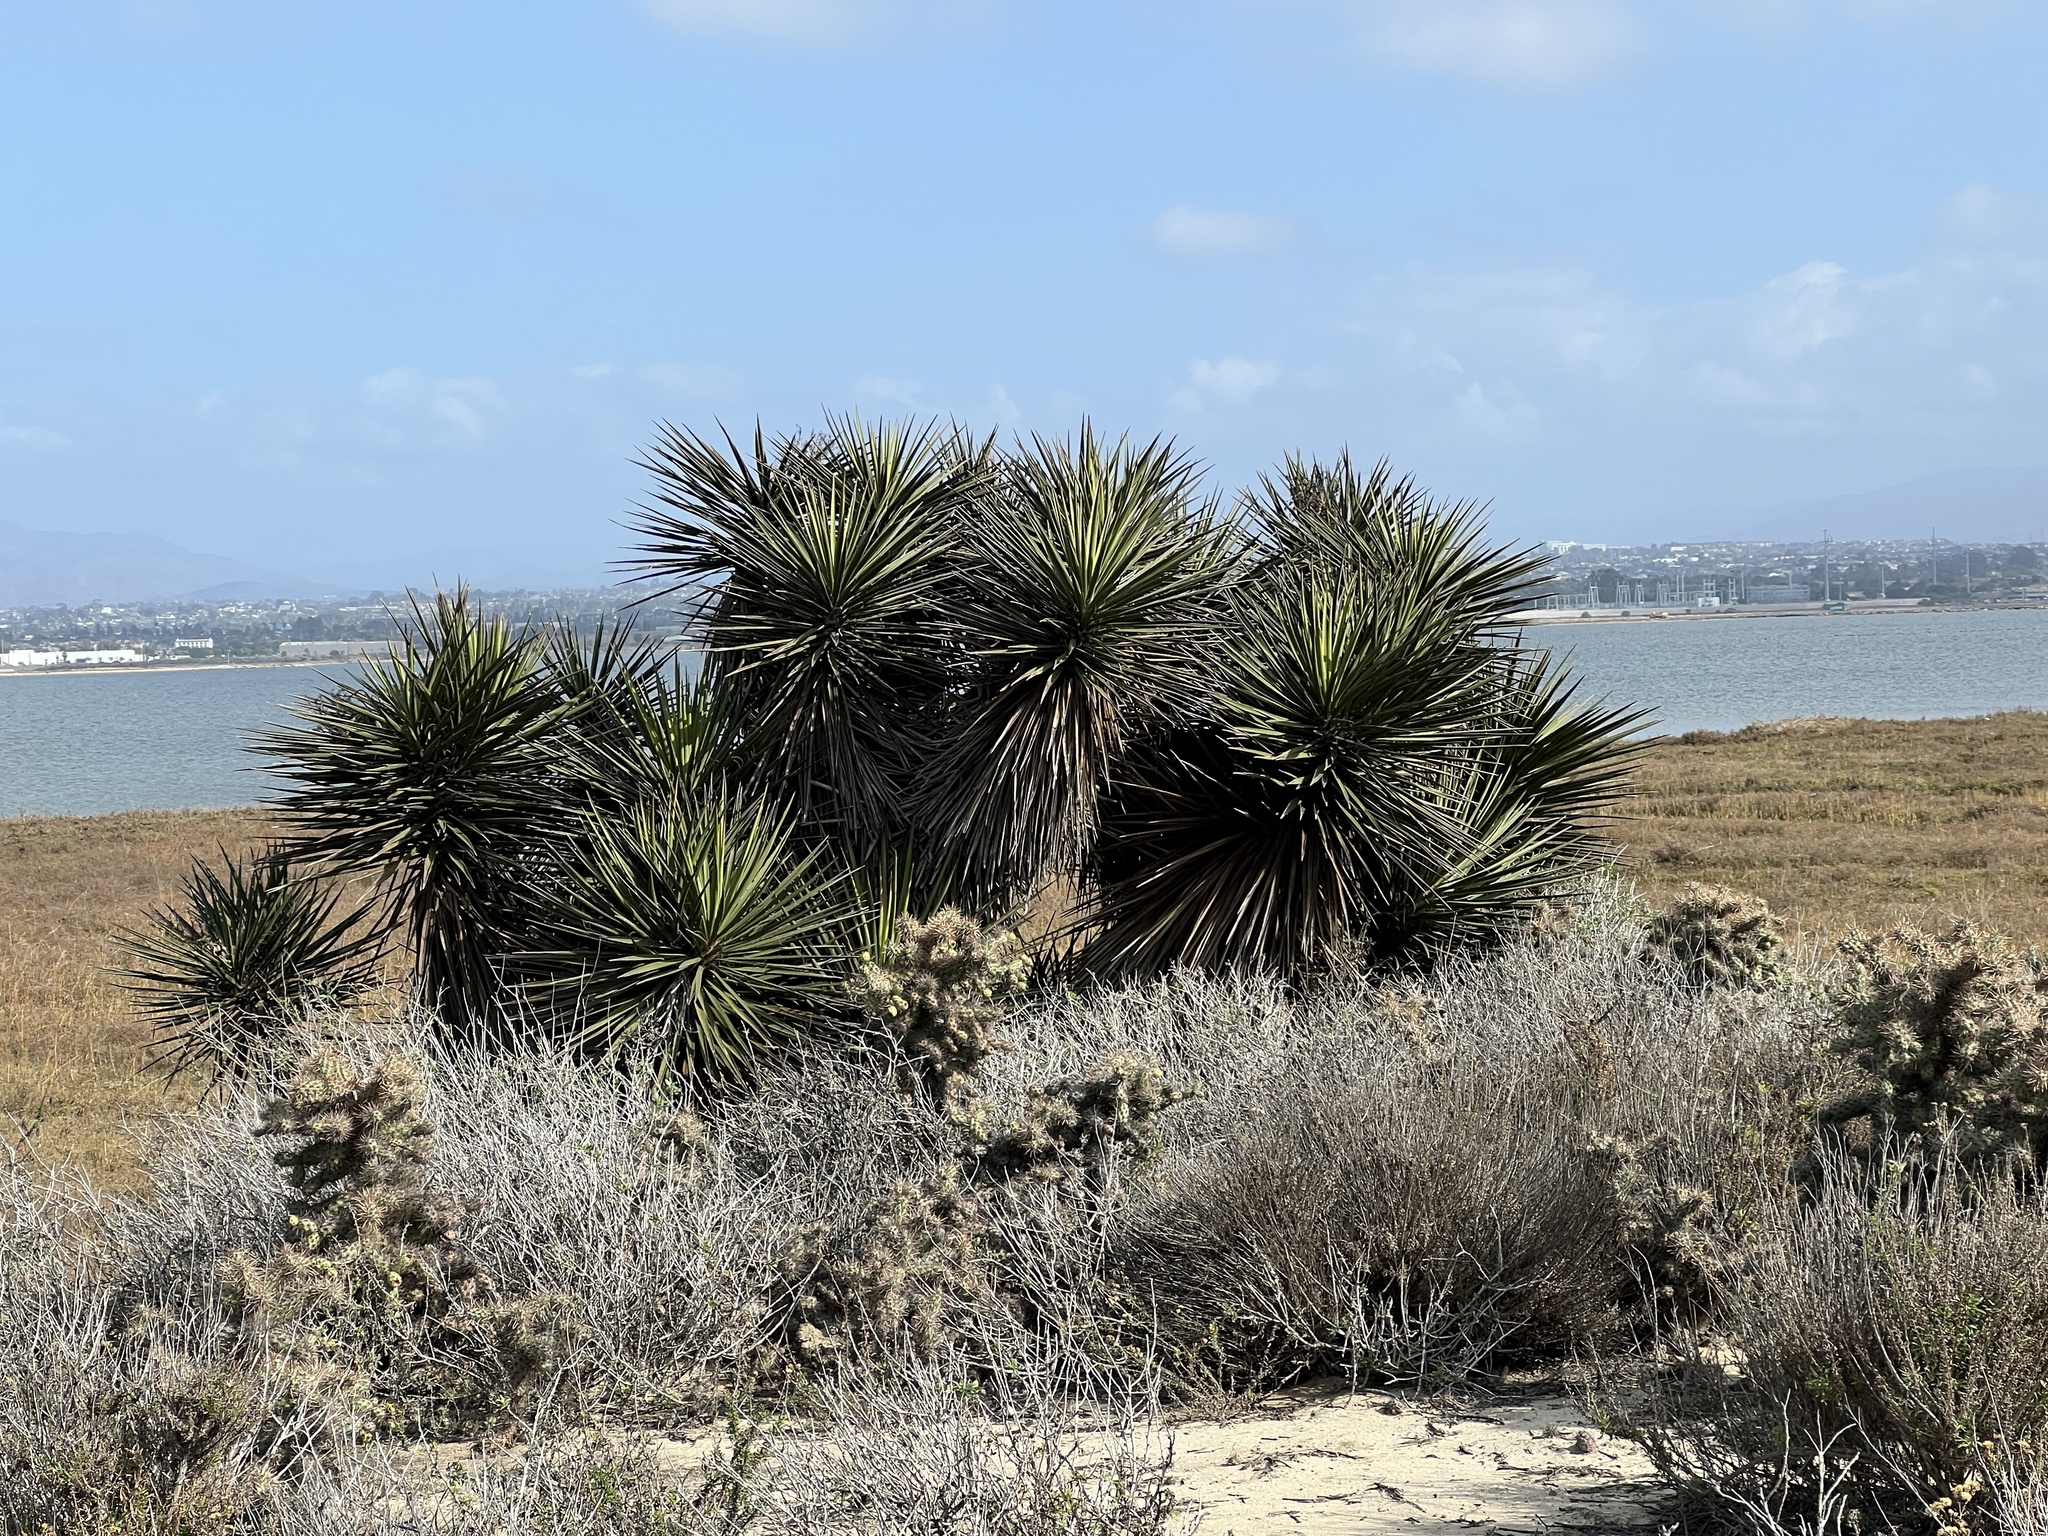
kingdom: Plantae
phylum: Tracheophyta
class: Liliopsida
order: Asparagales
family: Asparagaceae
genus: Yucca
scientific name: Yucca schidigera
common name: Mojave yucca
